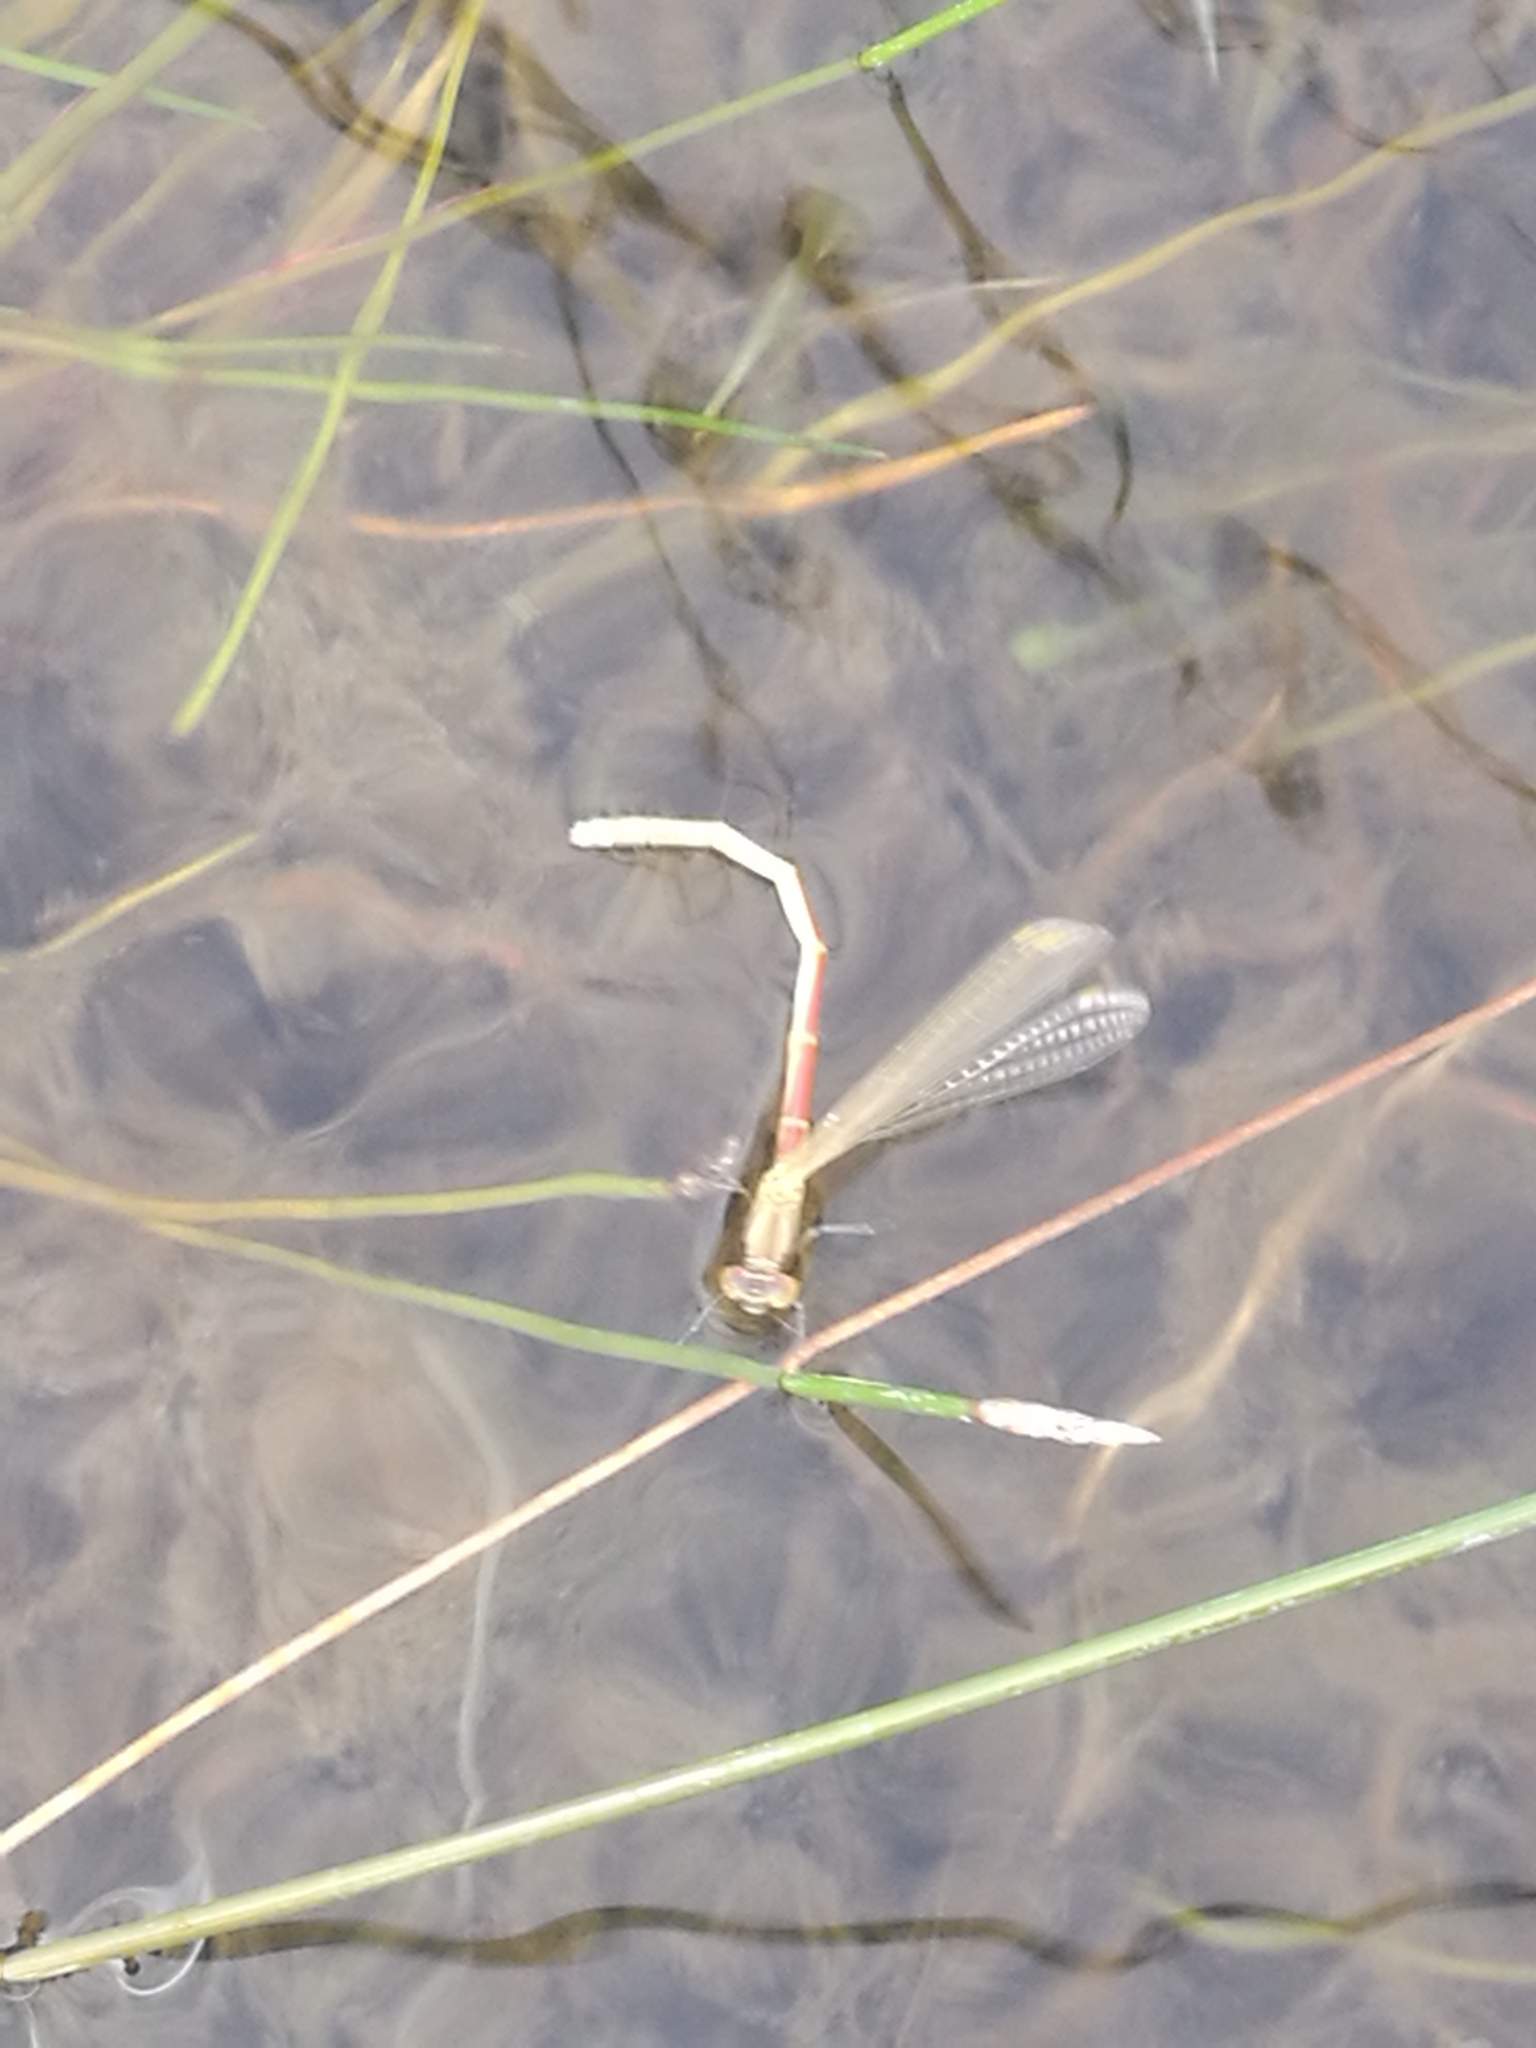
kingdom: Animalia
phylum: Arthropoda
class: Insecta
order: Odonata
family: Coenagrionidae
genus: Xanthocnemis
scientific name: Xanthocnemis zealandica
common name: Common redcoat damselfly
